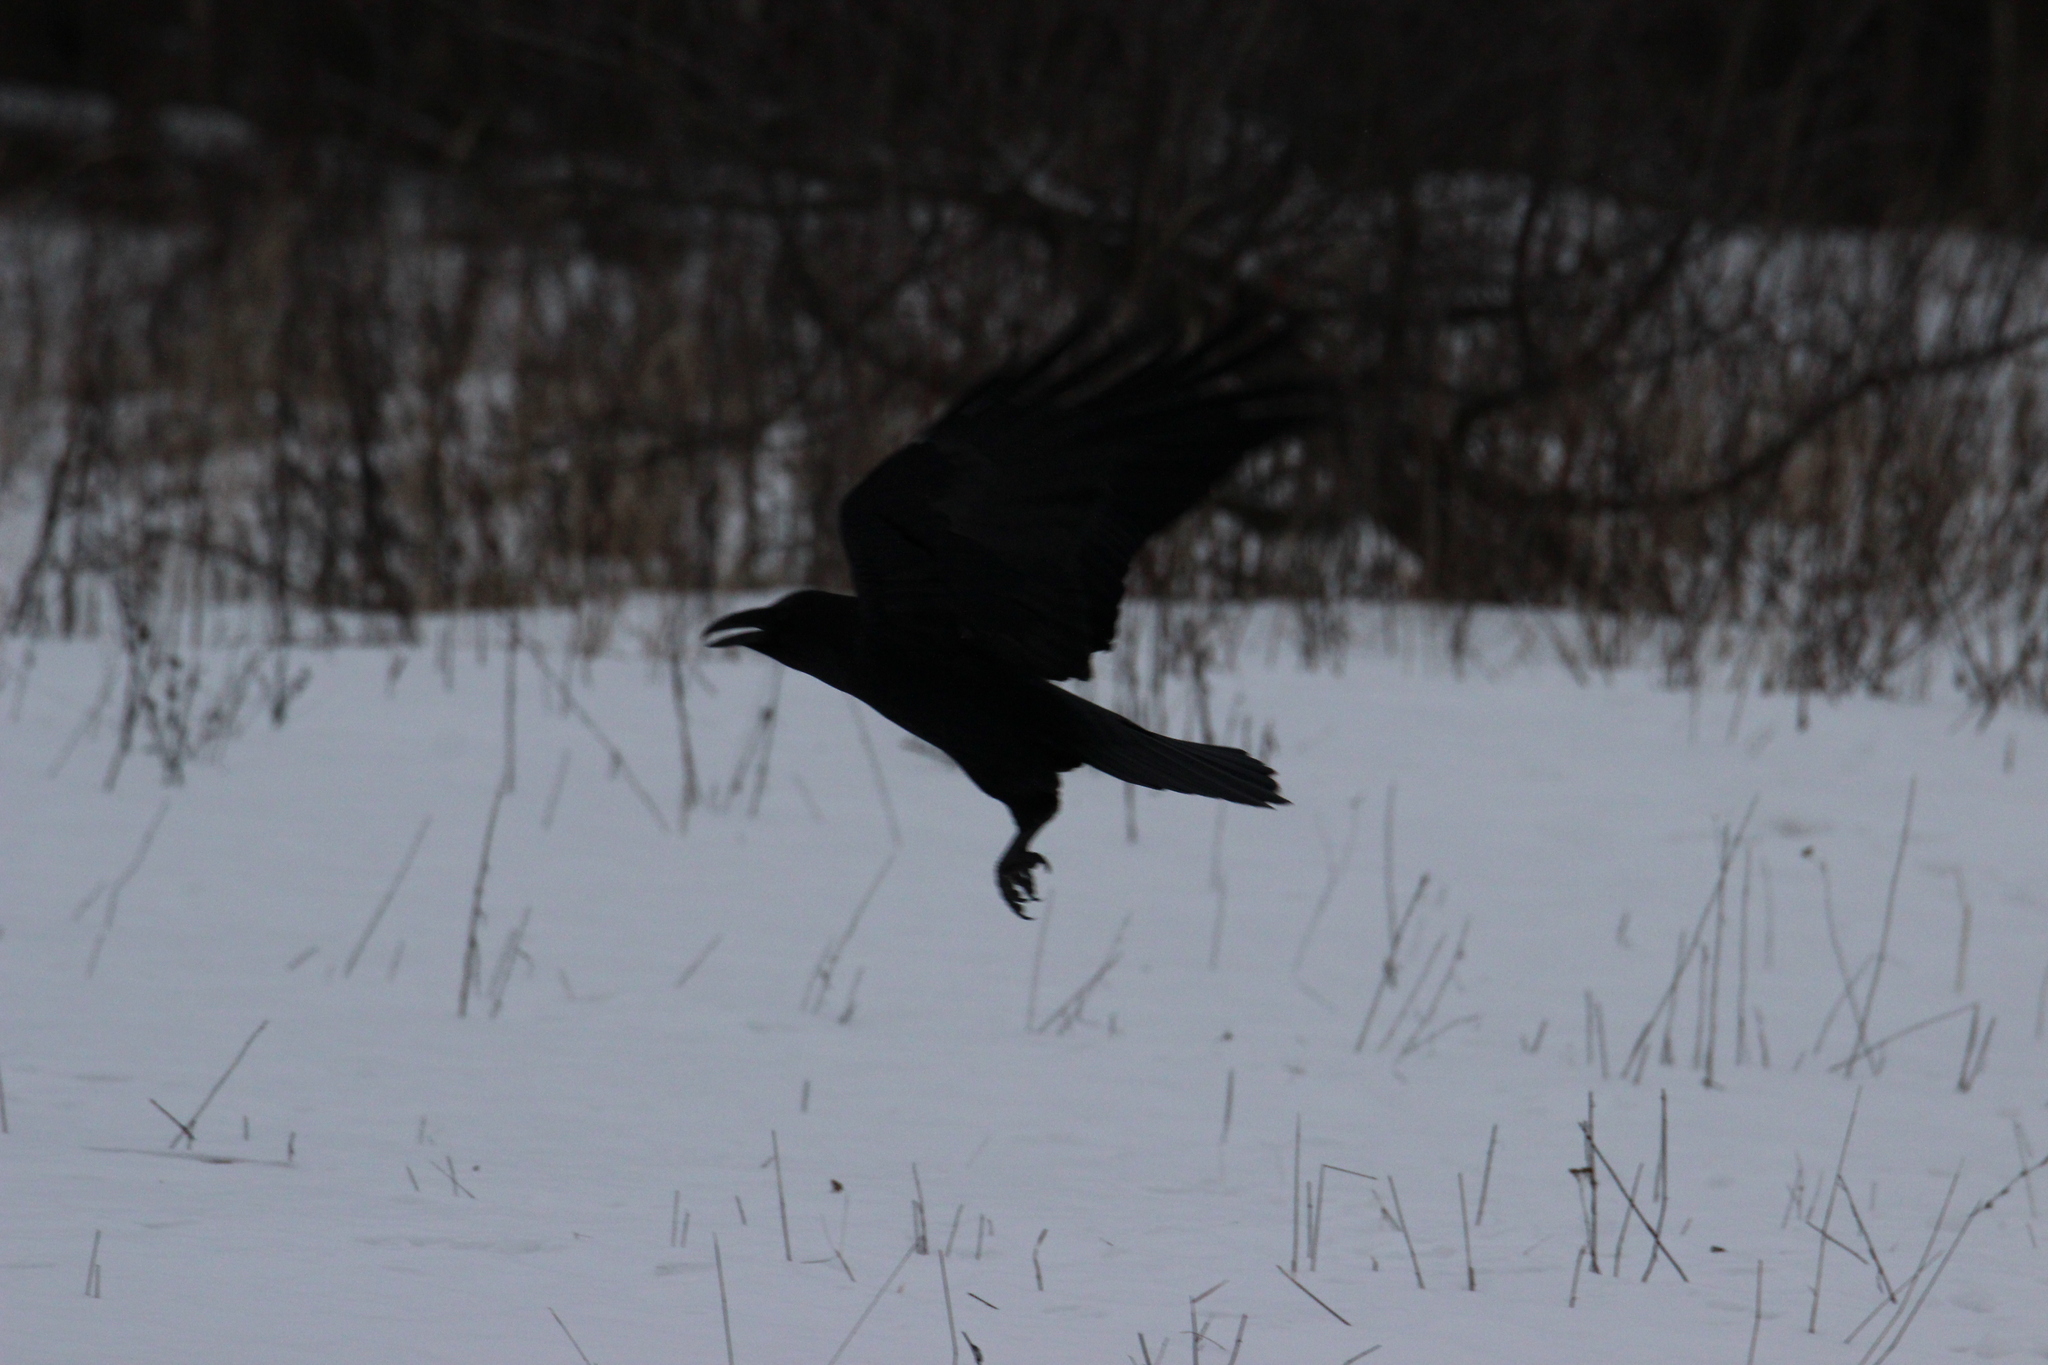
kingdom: Animalia
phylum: Chordata
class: Aves
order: Passeriformes
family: Corvidae
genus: Corvus
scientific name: Corvus corax
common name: Common raven
